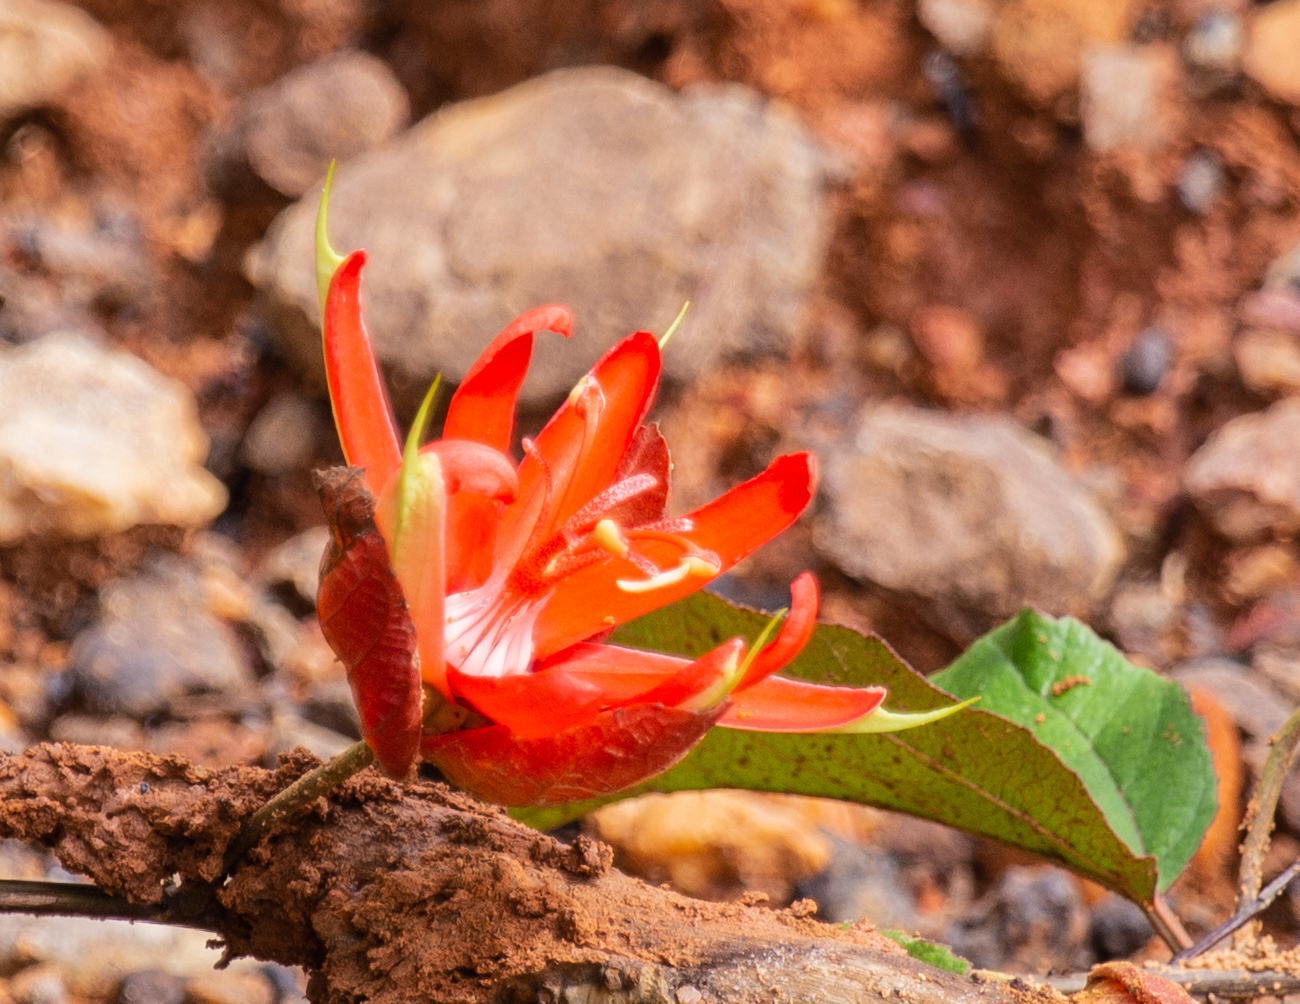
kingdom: Plantae
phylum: Tracheophyta
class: Magnoliopsida
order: Malpighiales
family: Passifloraceae
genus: Passiflora
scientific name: Passiflora coccinea
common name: Scarlet passionflower
